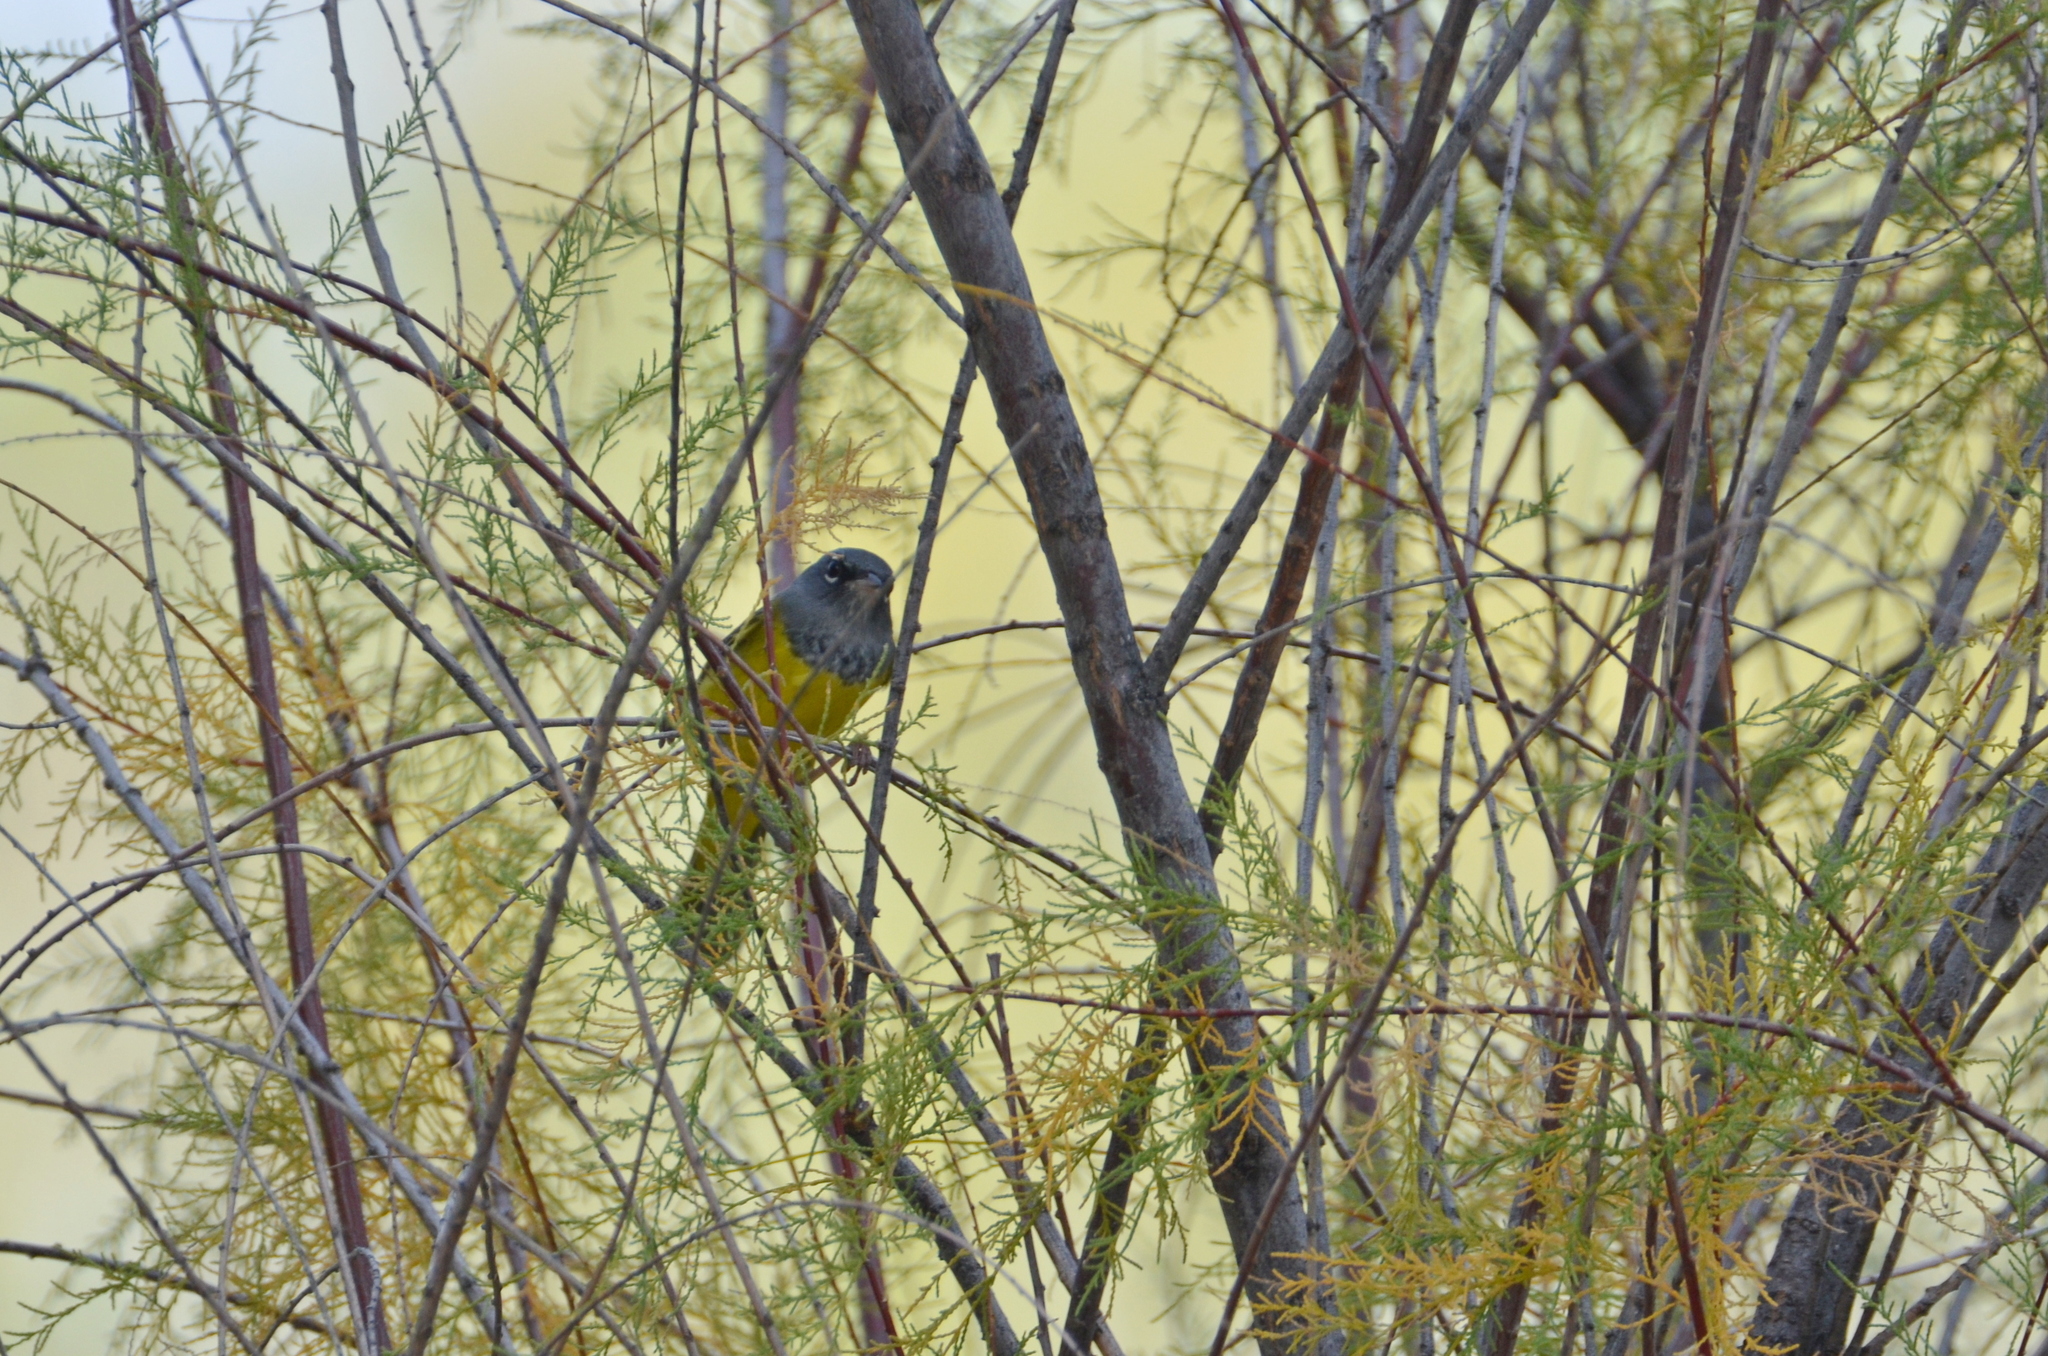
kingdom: Animalia
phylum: Chordata
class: Aves
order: Passeriformes
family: Parulidae
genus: Geothlypis
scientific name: Geothlypis tolmiei
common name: Macgillivray's warbler
